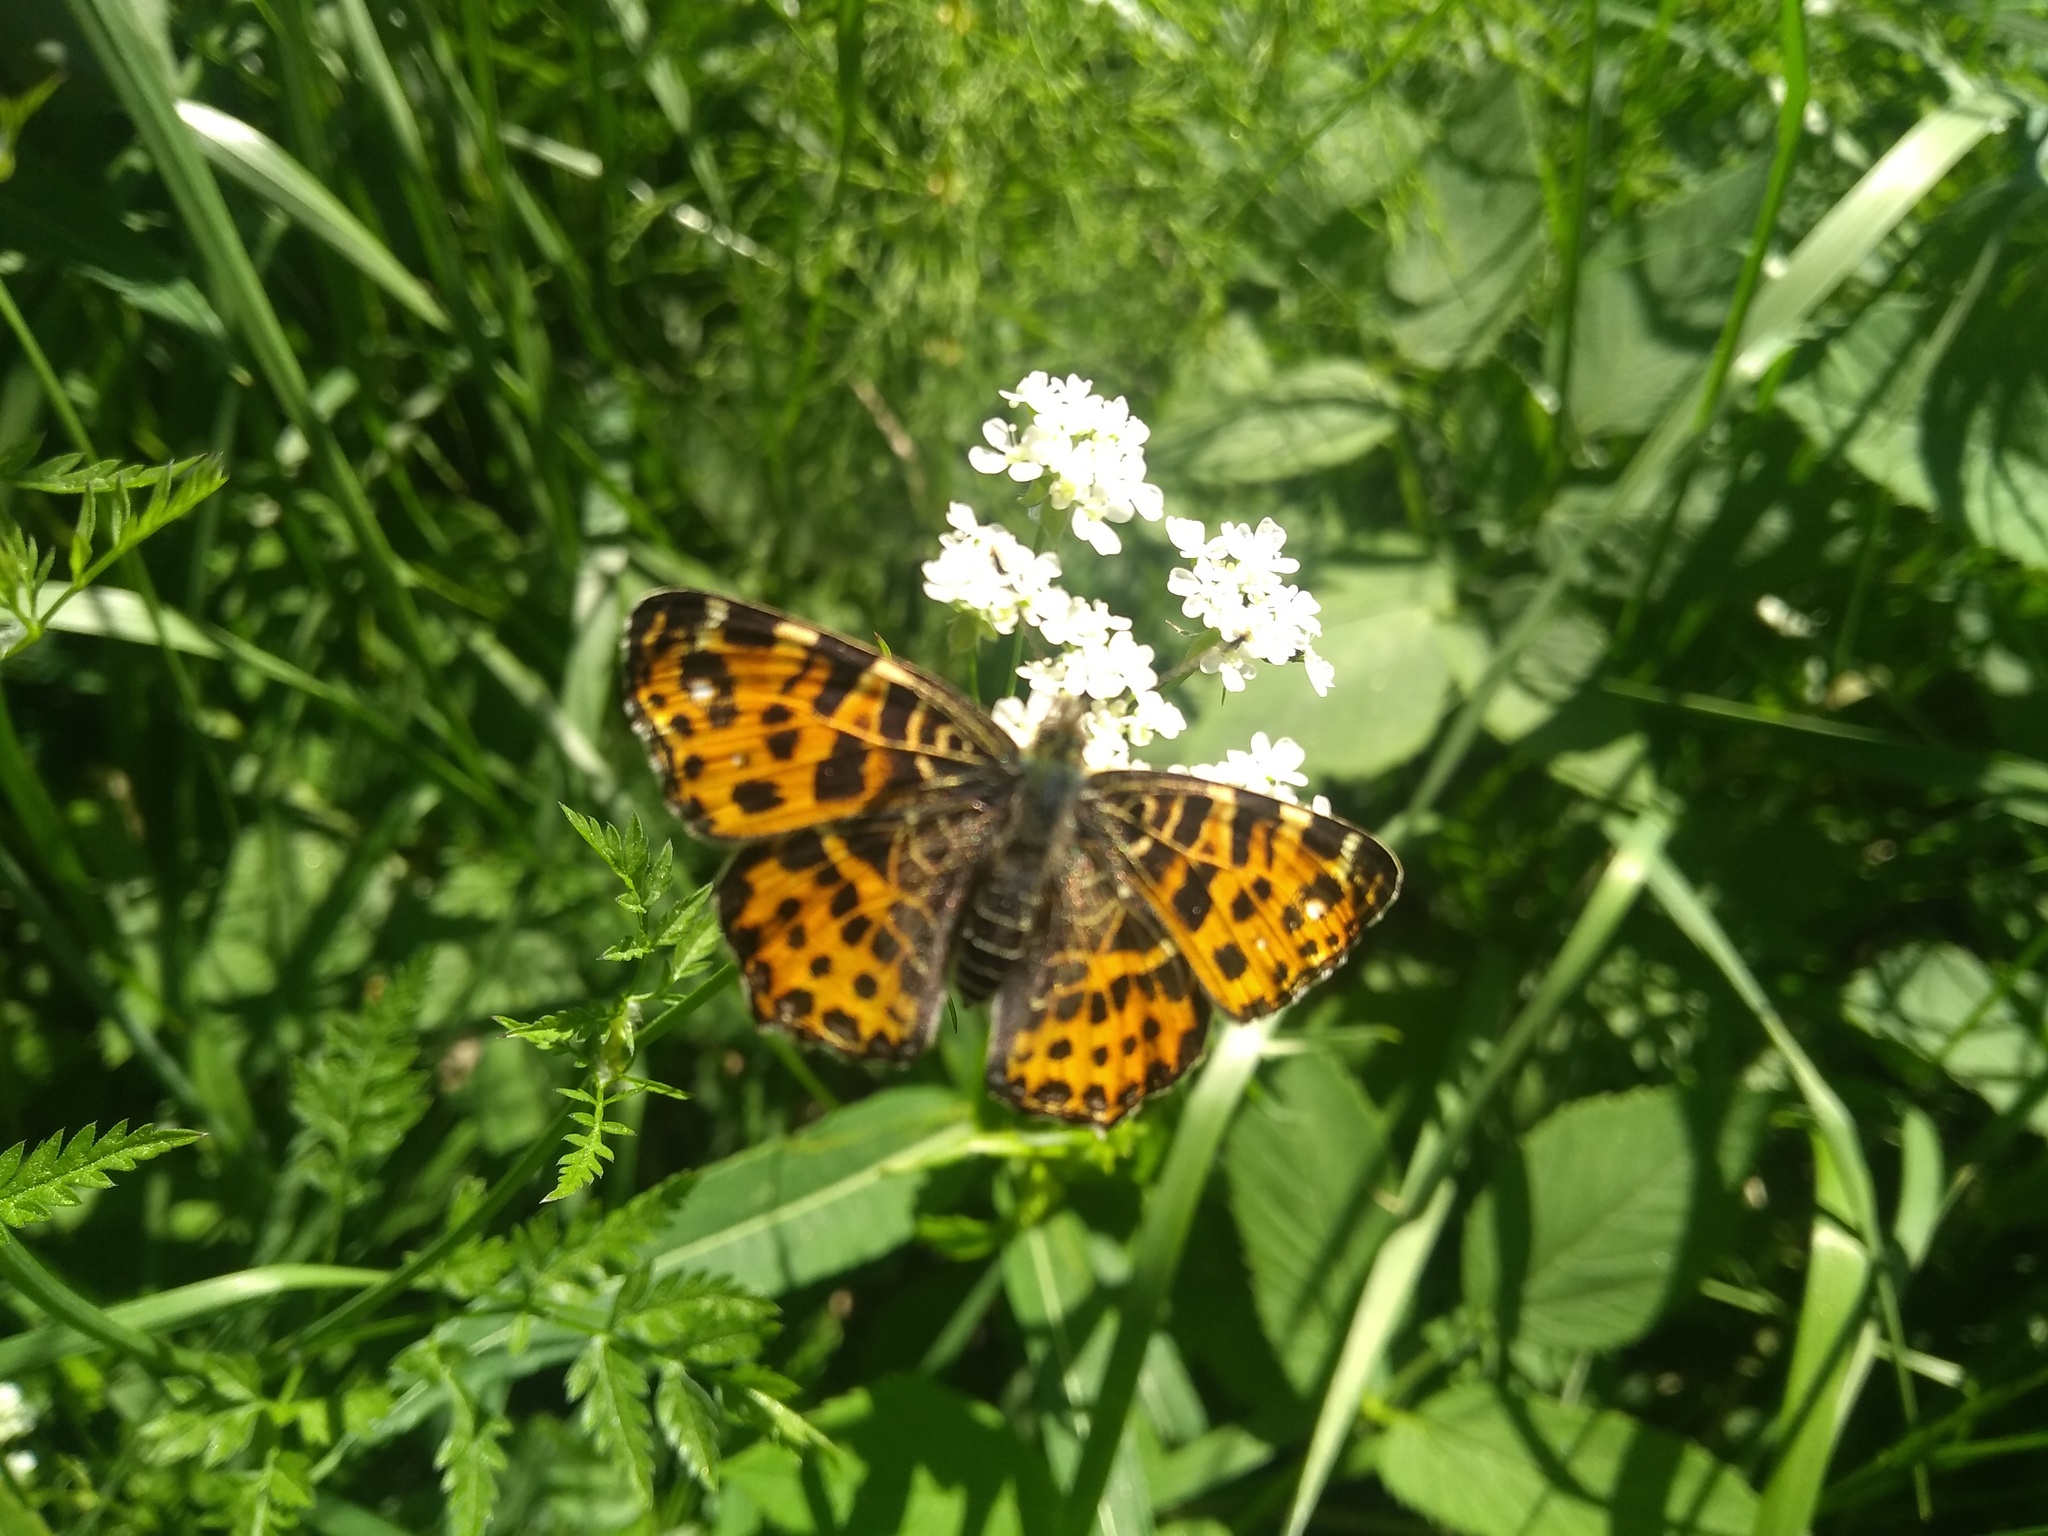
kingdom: Animalia
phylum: Arthropoda
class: Insecta
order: Lepidoptera
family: Nymphalidae
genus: Araschnia
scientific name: Araschnia levana
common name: Map butterfly
